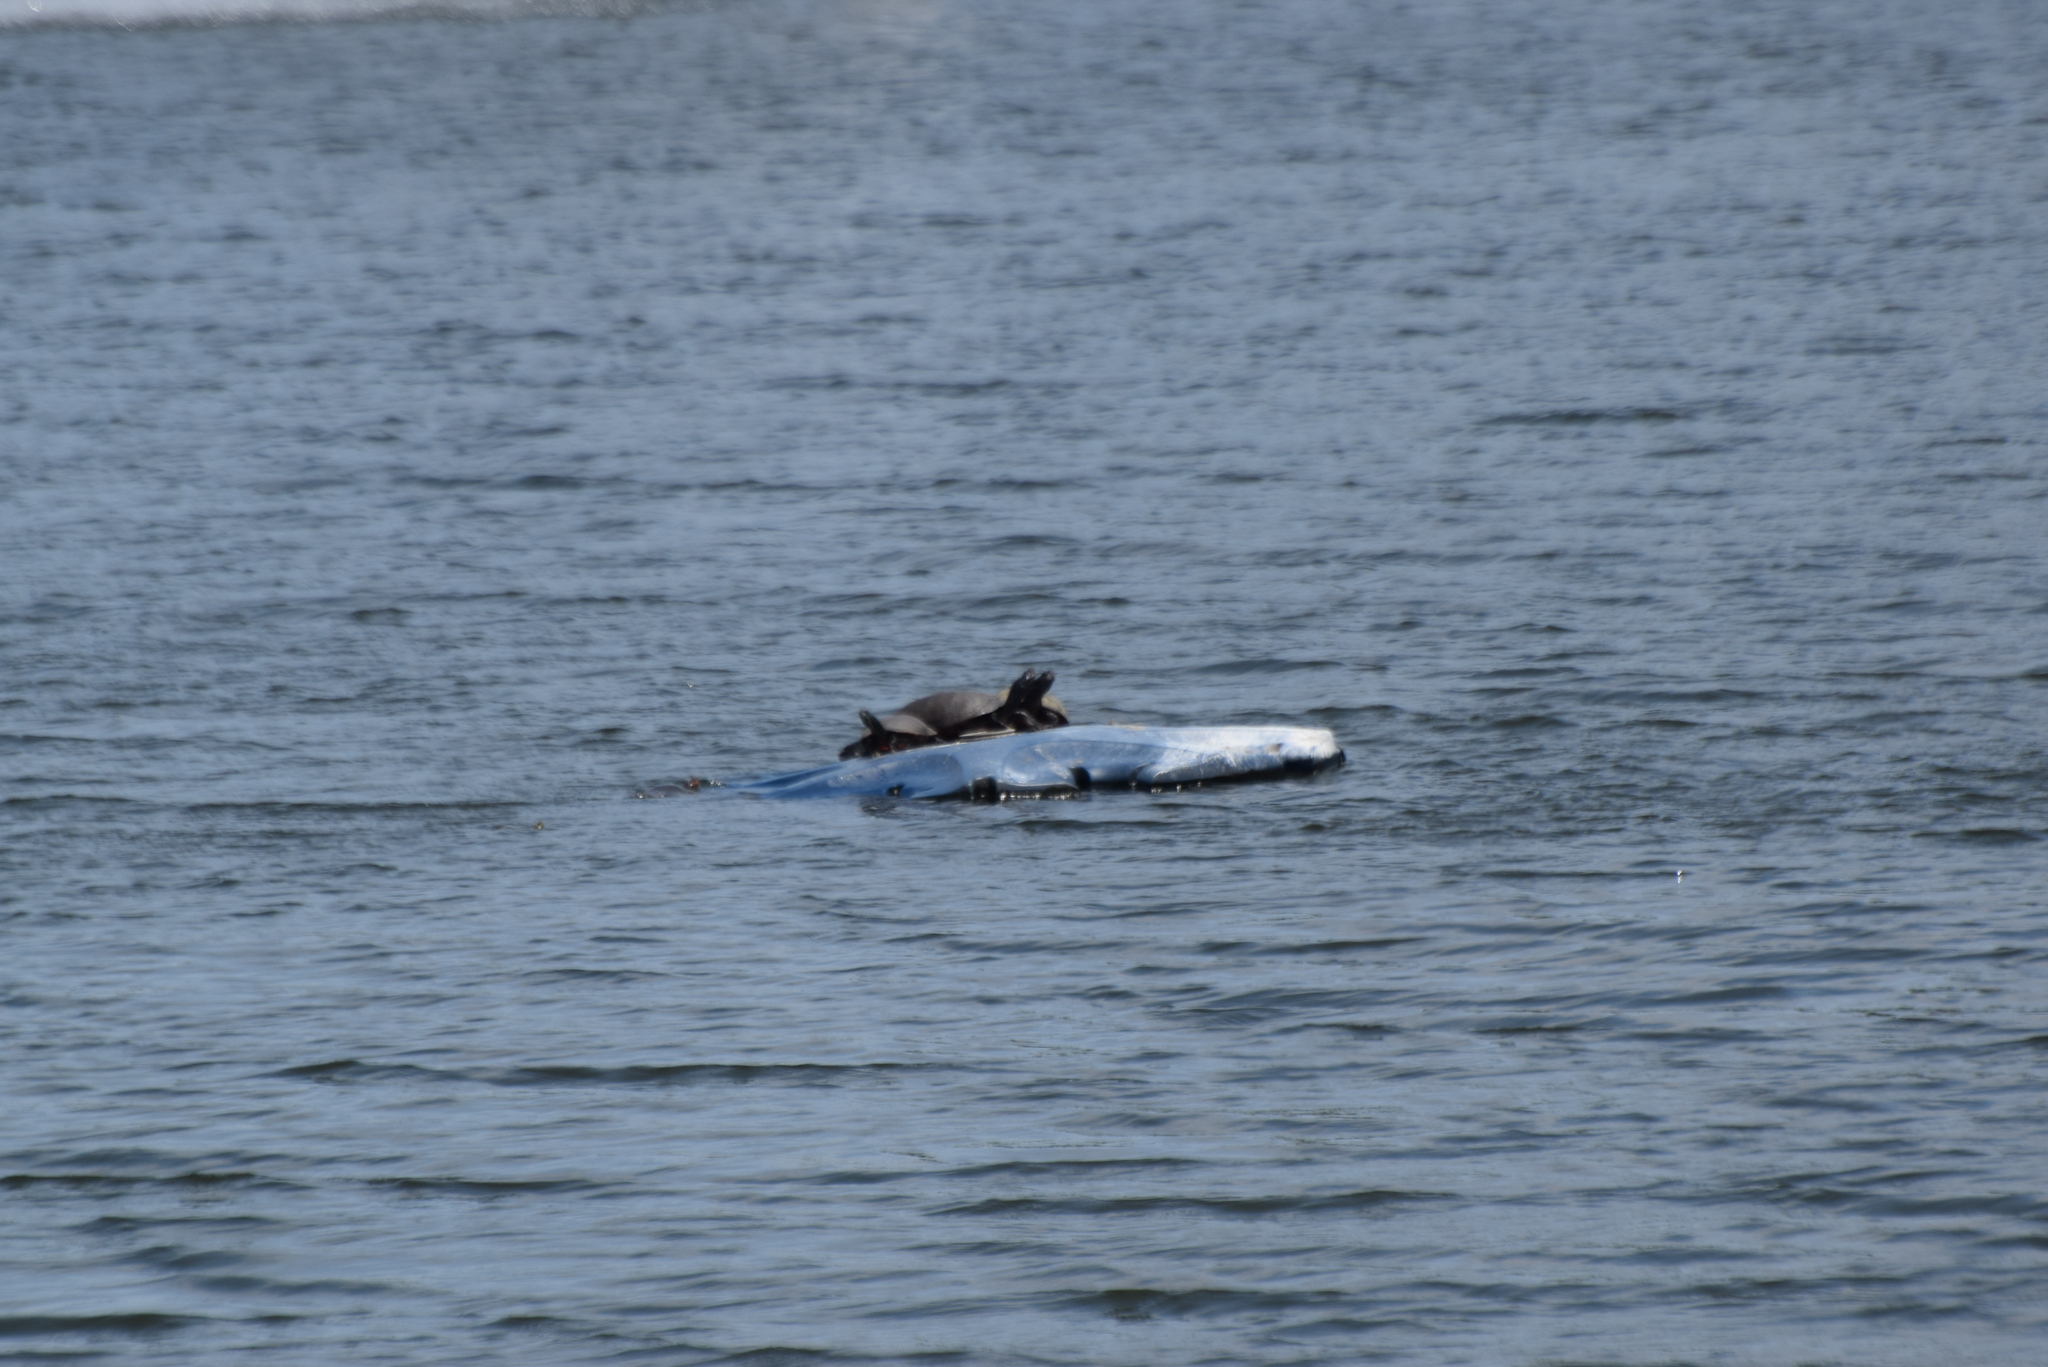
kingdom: Animalia
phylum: Chordata
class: Testudines
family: Emydidae
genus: Pseudemys
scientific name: Pseudemys rubriventris
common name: American red-bellied turtle
